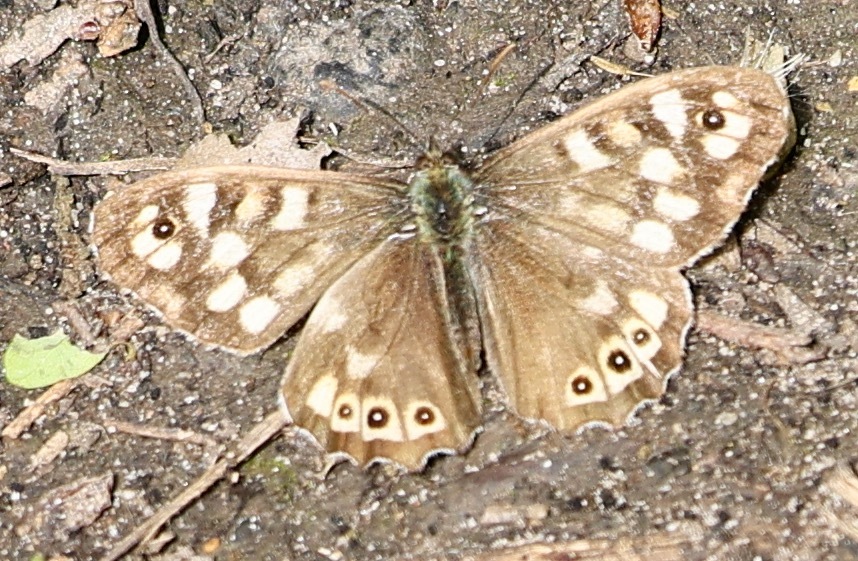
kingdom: Animalia
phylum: Arthropoda
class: Insecta
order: Lepidoptera
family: Nymphalidae
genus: Pararge
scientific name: Pararge aegeria
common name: Speckled wood
